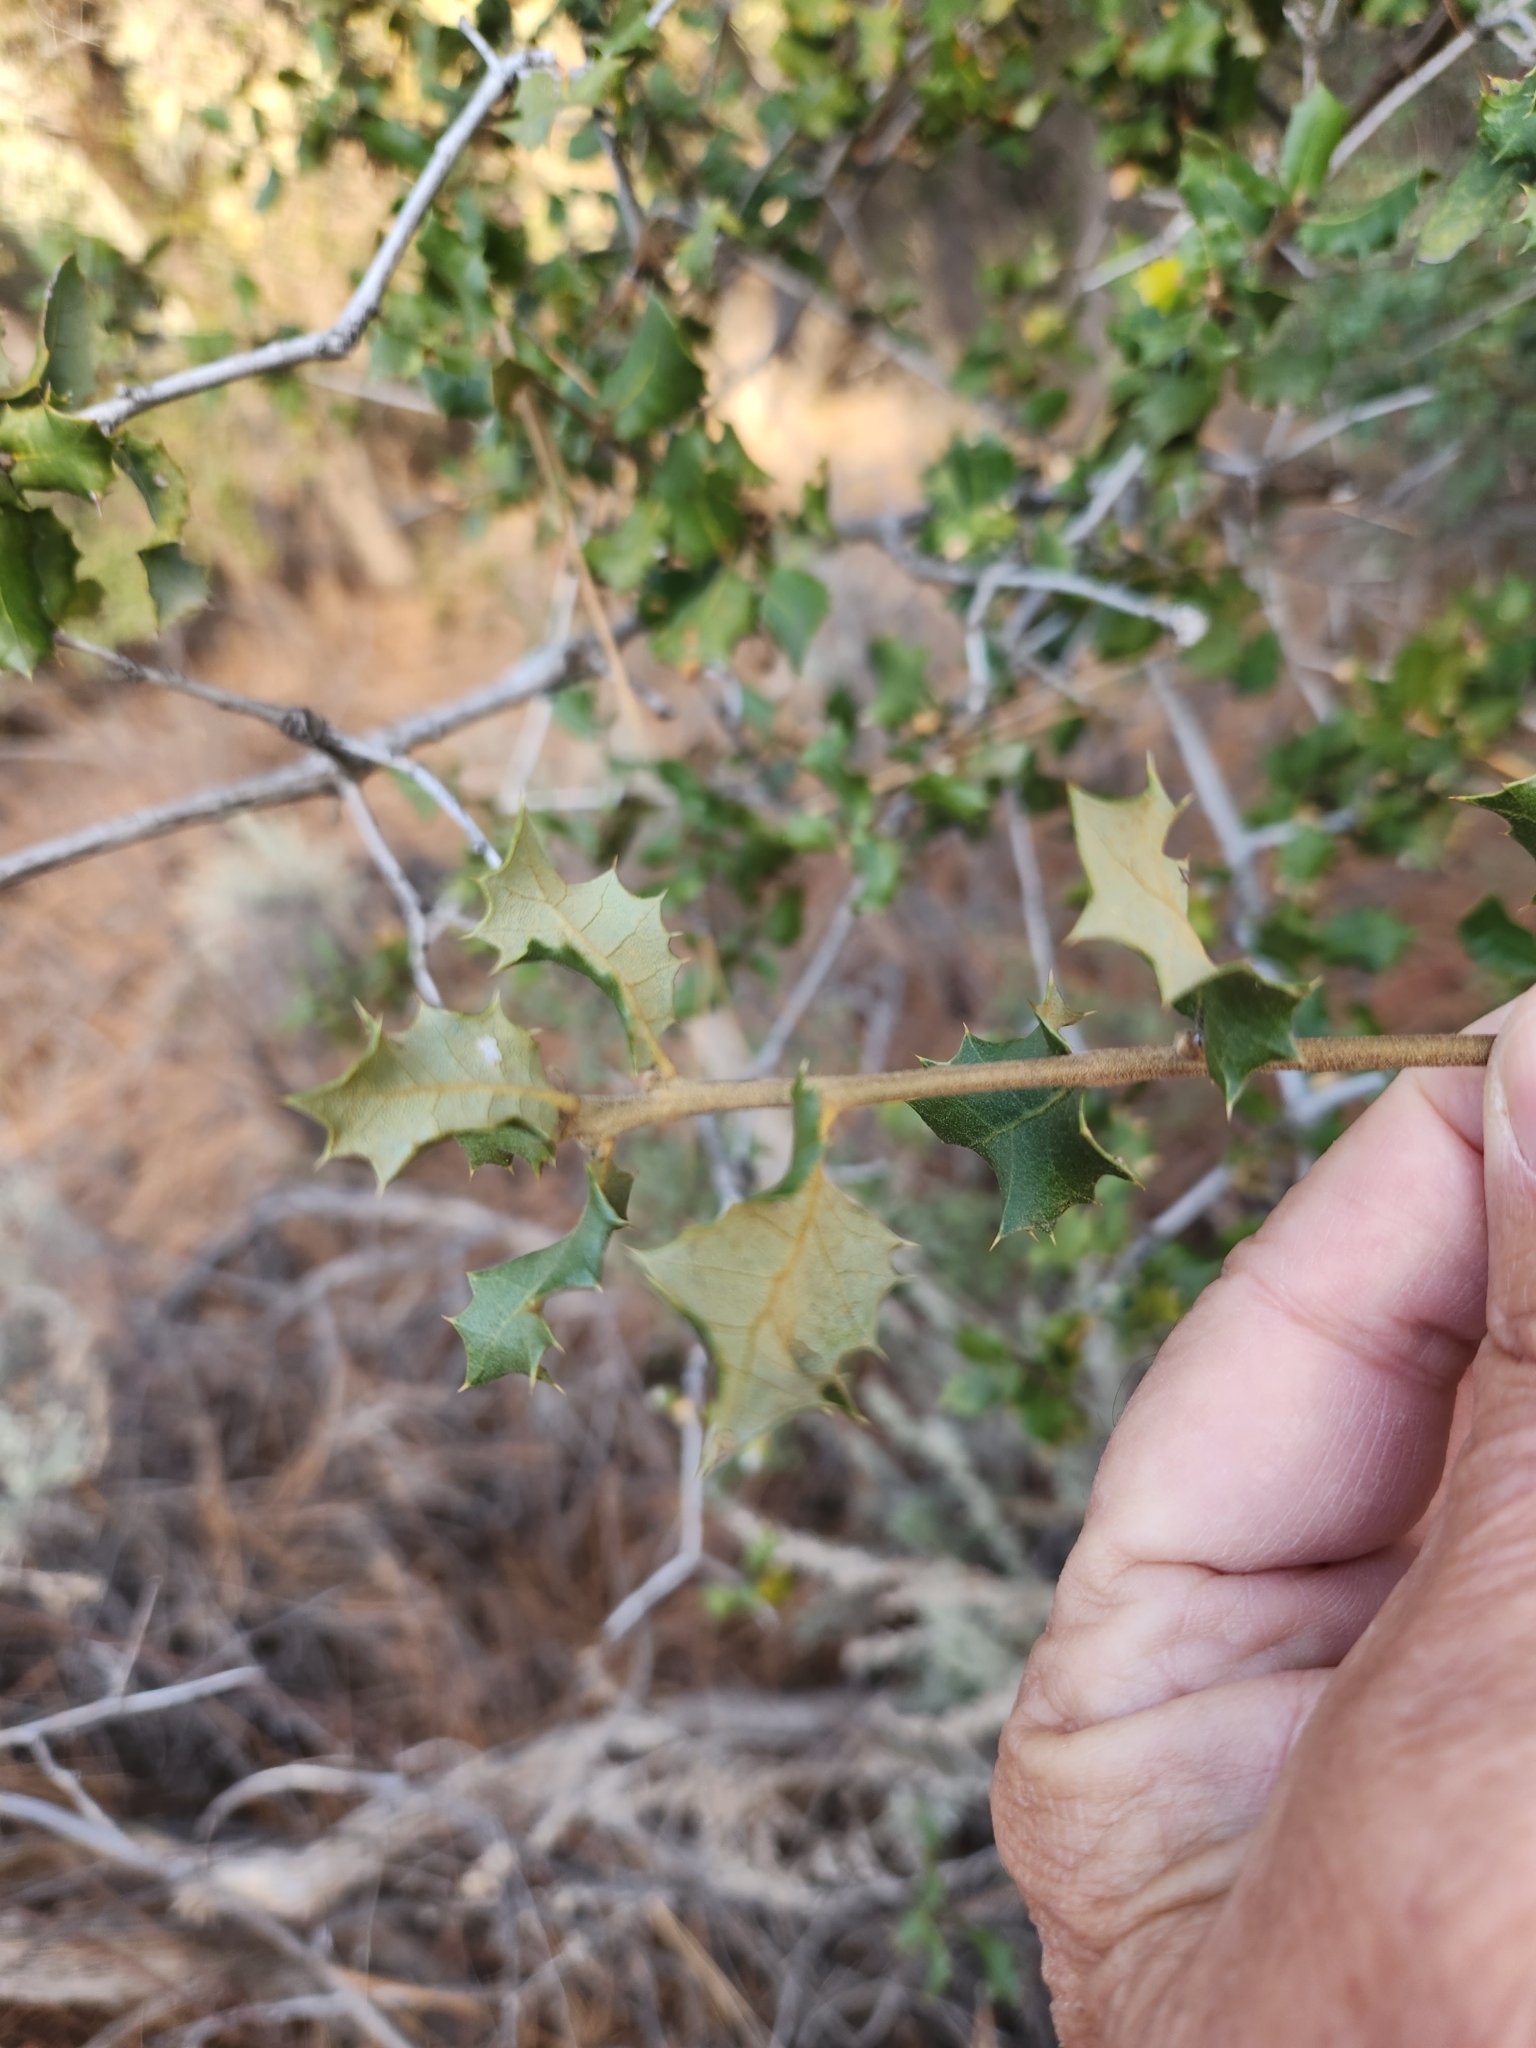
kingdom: Plantae
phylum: Tracheophyta
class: Magnoliopsida
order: Fagales
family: Fagaceae
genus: Quercus
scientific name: Quercus palmeri
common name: Dunn oak
